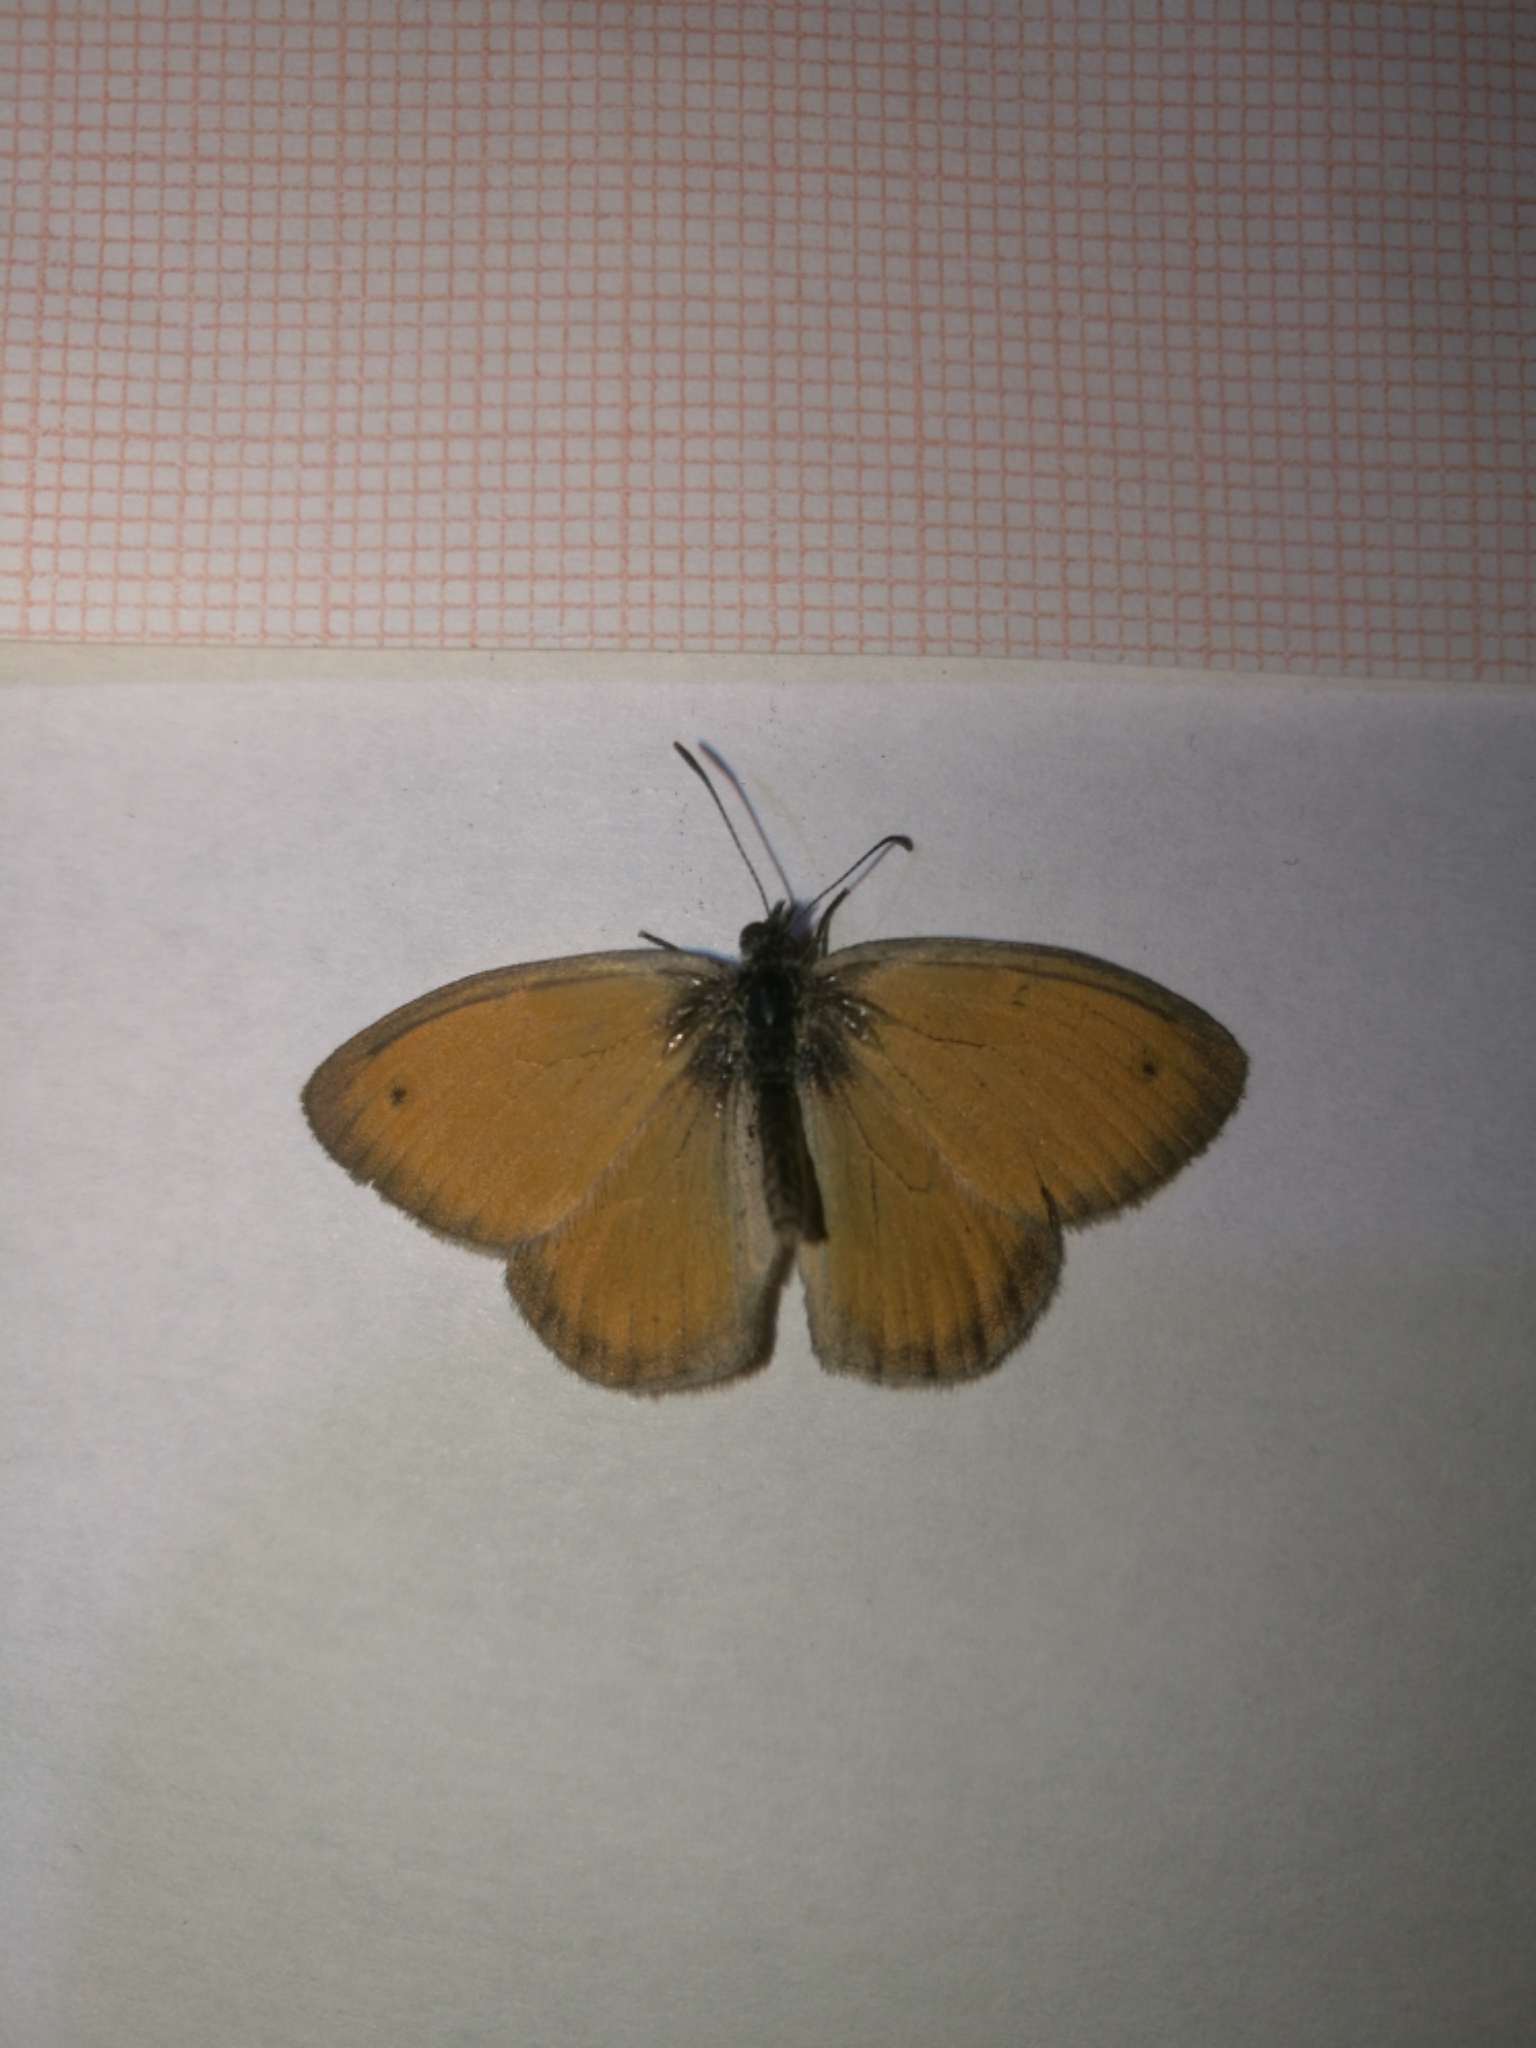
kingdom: Animalia
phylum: Arthropoda
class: Insecta
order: Lepidoptera
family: Nymphalidae
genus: Coenonympha
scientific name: Coenonympha pamphilus
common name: Small heath
